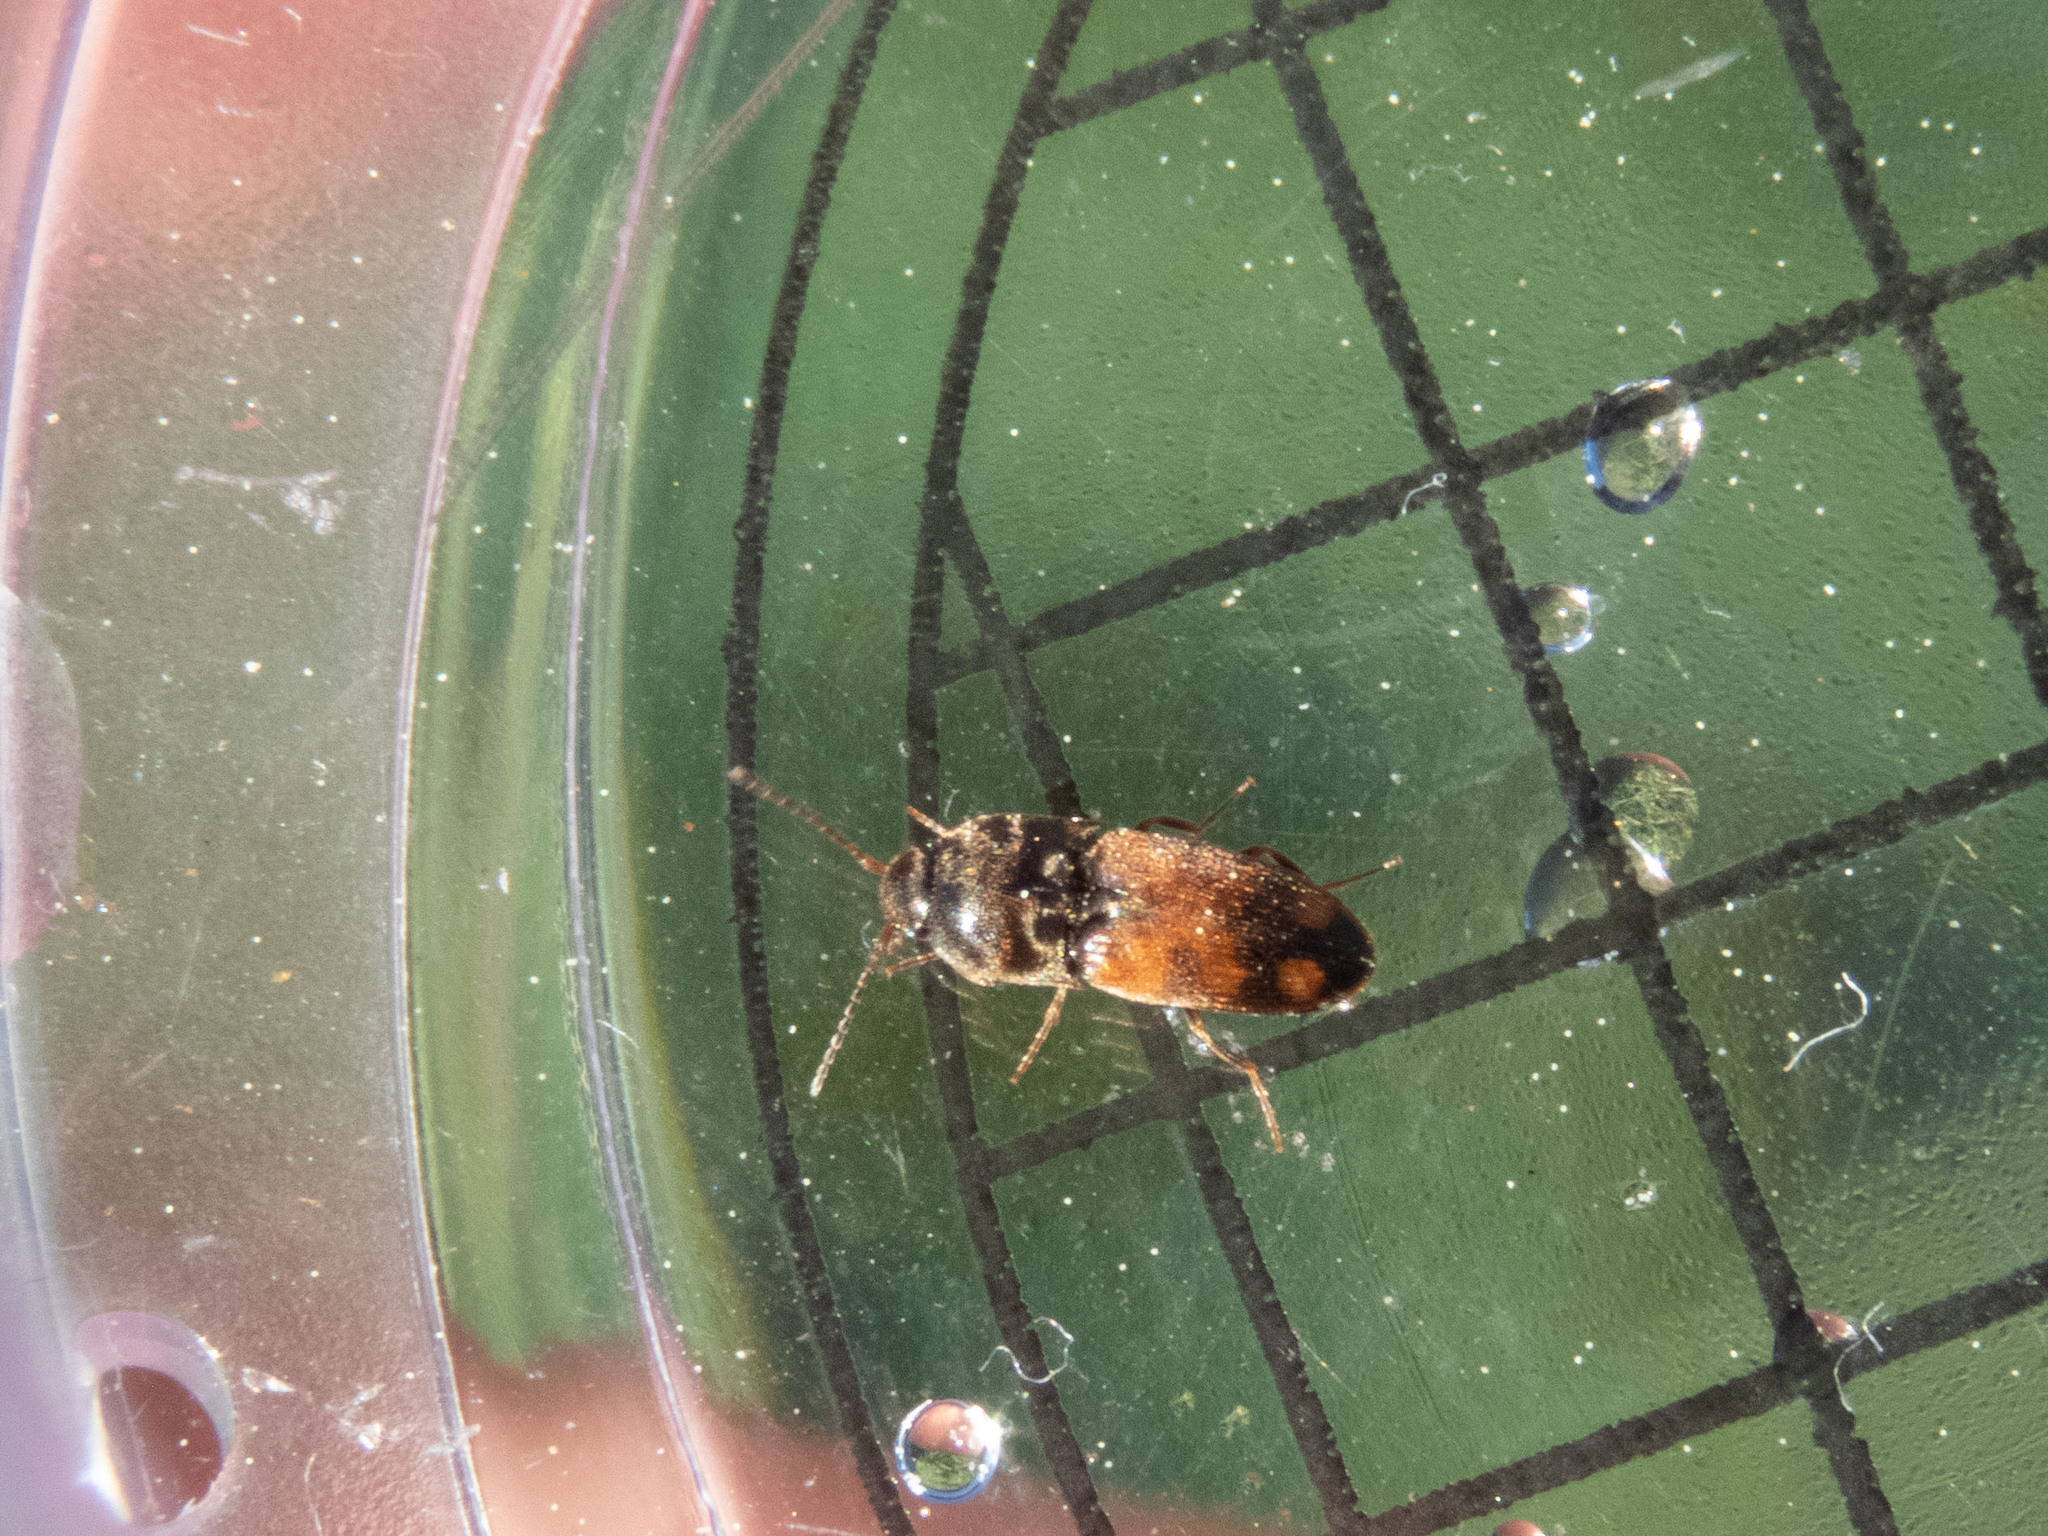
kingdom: Animalia
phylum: Arthropoda
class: Insecta
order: Coleoptera
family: Elateridae
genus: Drasterius
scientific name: Drasterius bimaculatus
